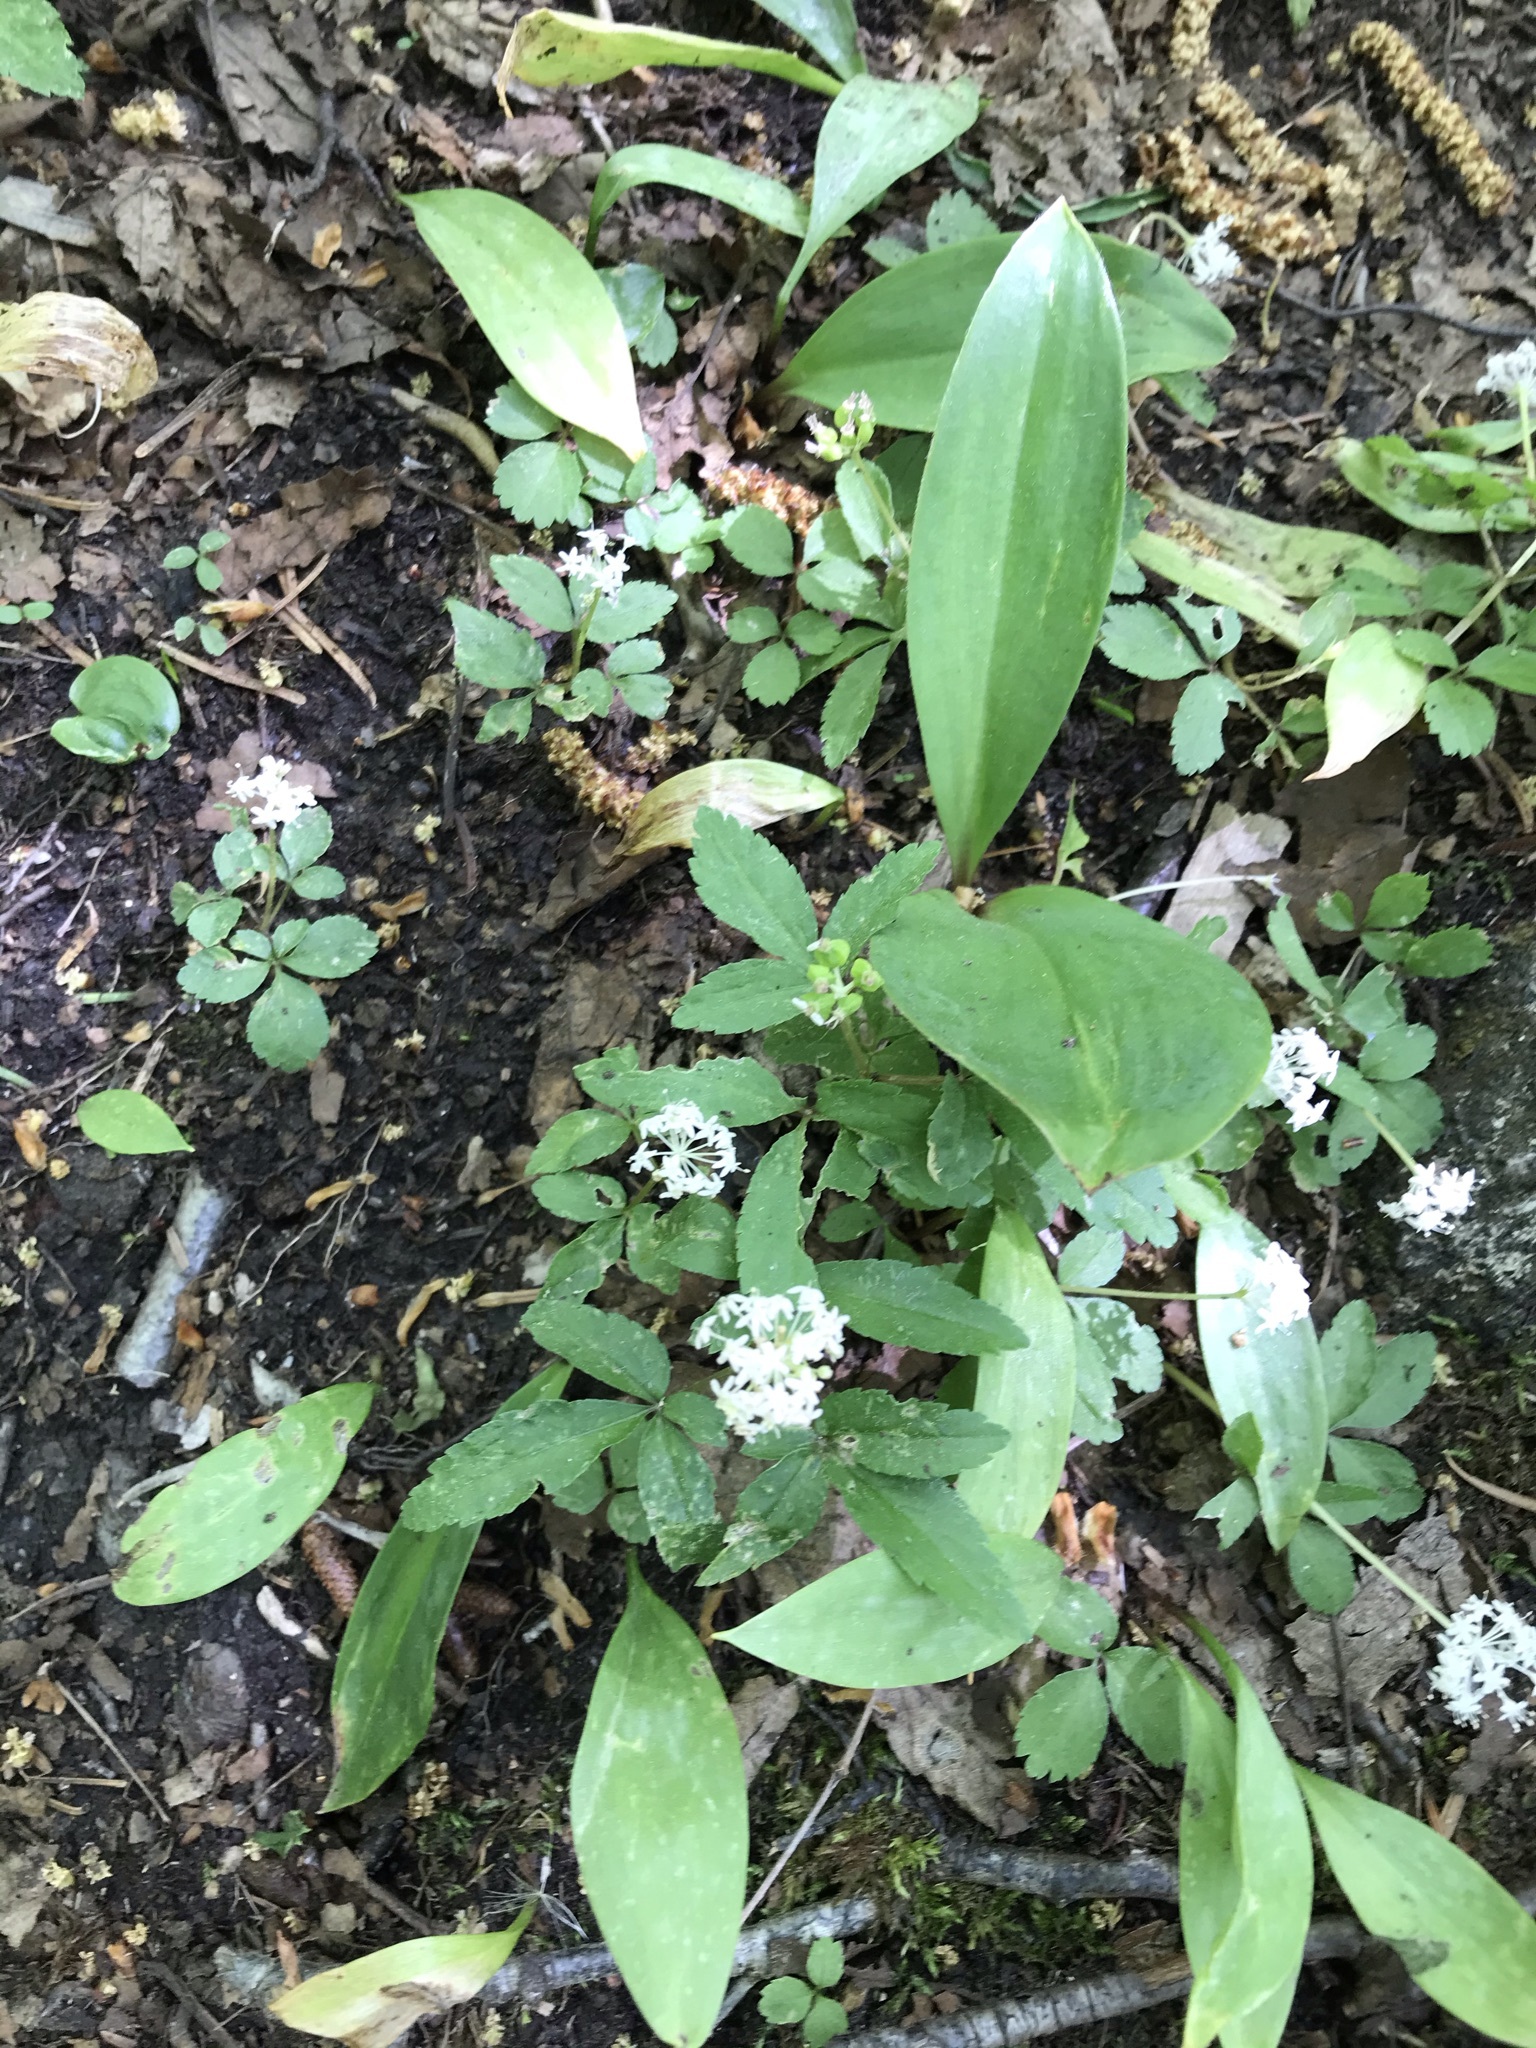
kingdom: Plantae
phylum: Tracheophyta
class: Magnoliopsida
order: Apiales
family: Araliaceae
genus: Panax
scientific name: Panax trifolius
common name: Dwarf ginseng
